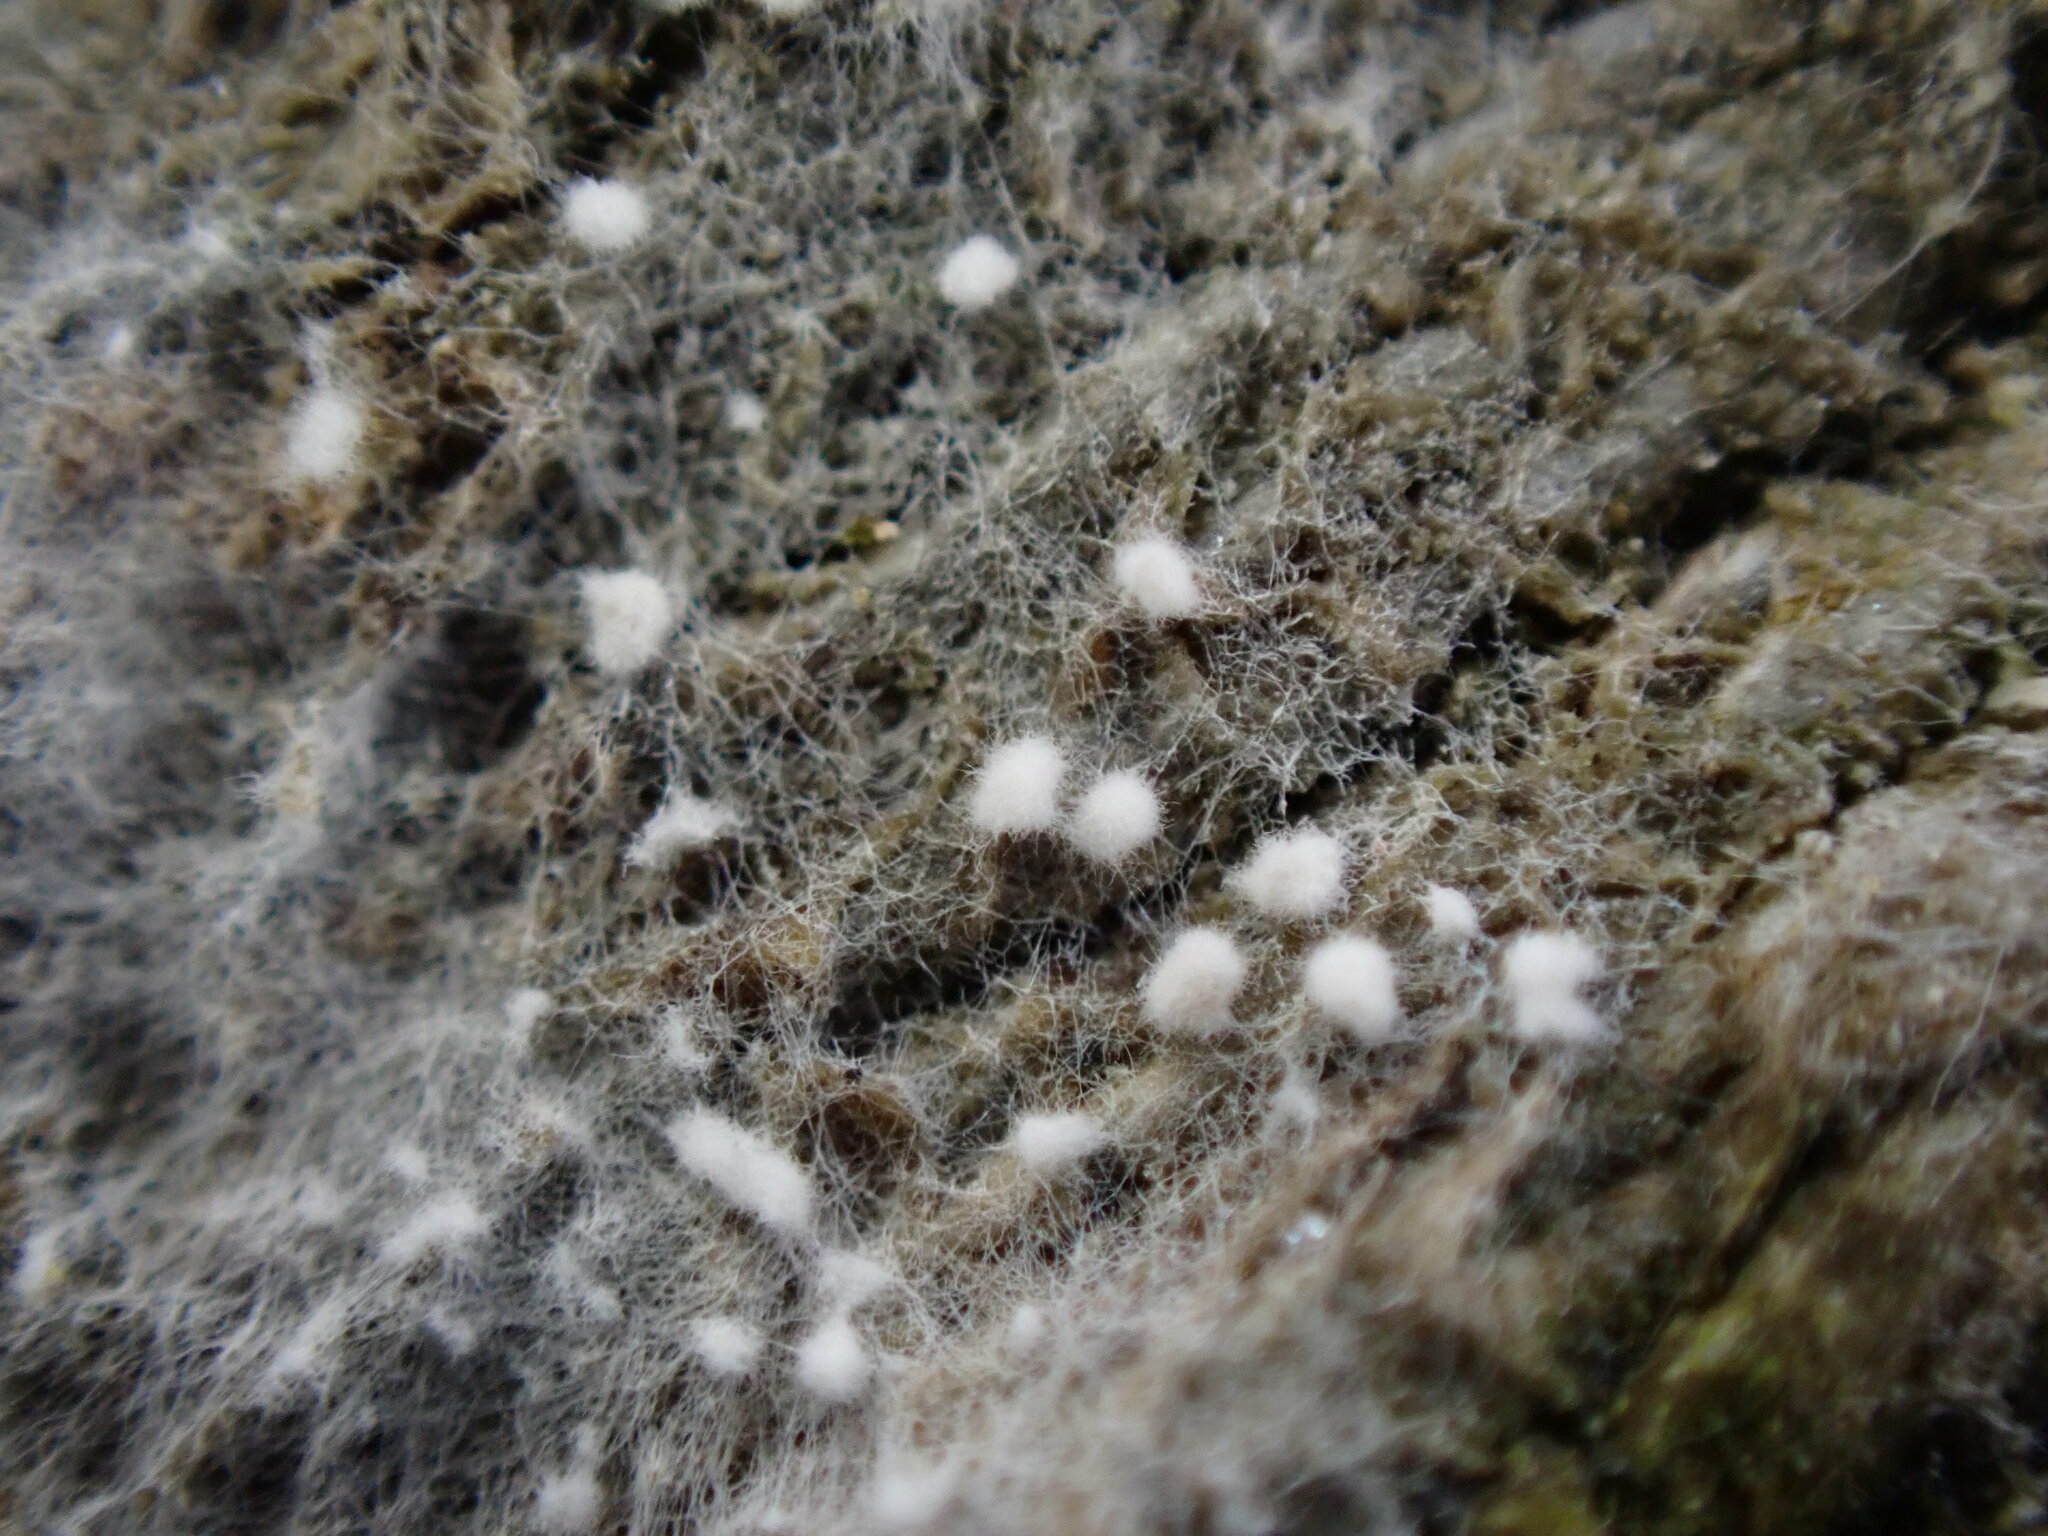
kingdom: Fungi
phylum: Basidiomycota
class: Agaricomycetes
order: Atheliales
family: Atheliaceae
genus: Athelia
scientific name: Athelia arachnoidea
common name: Candelabra duster
